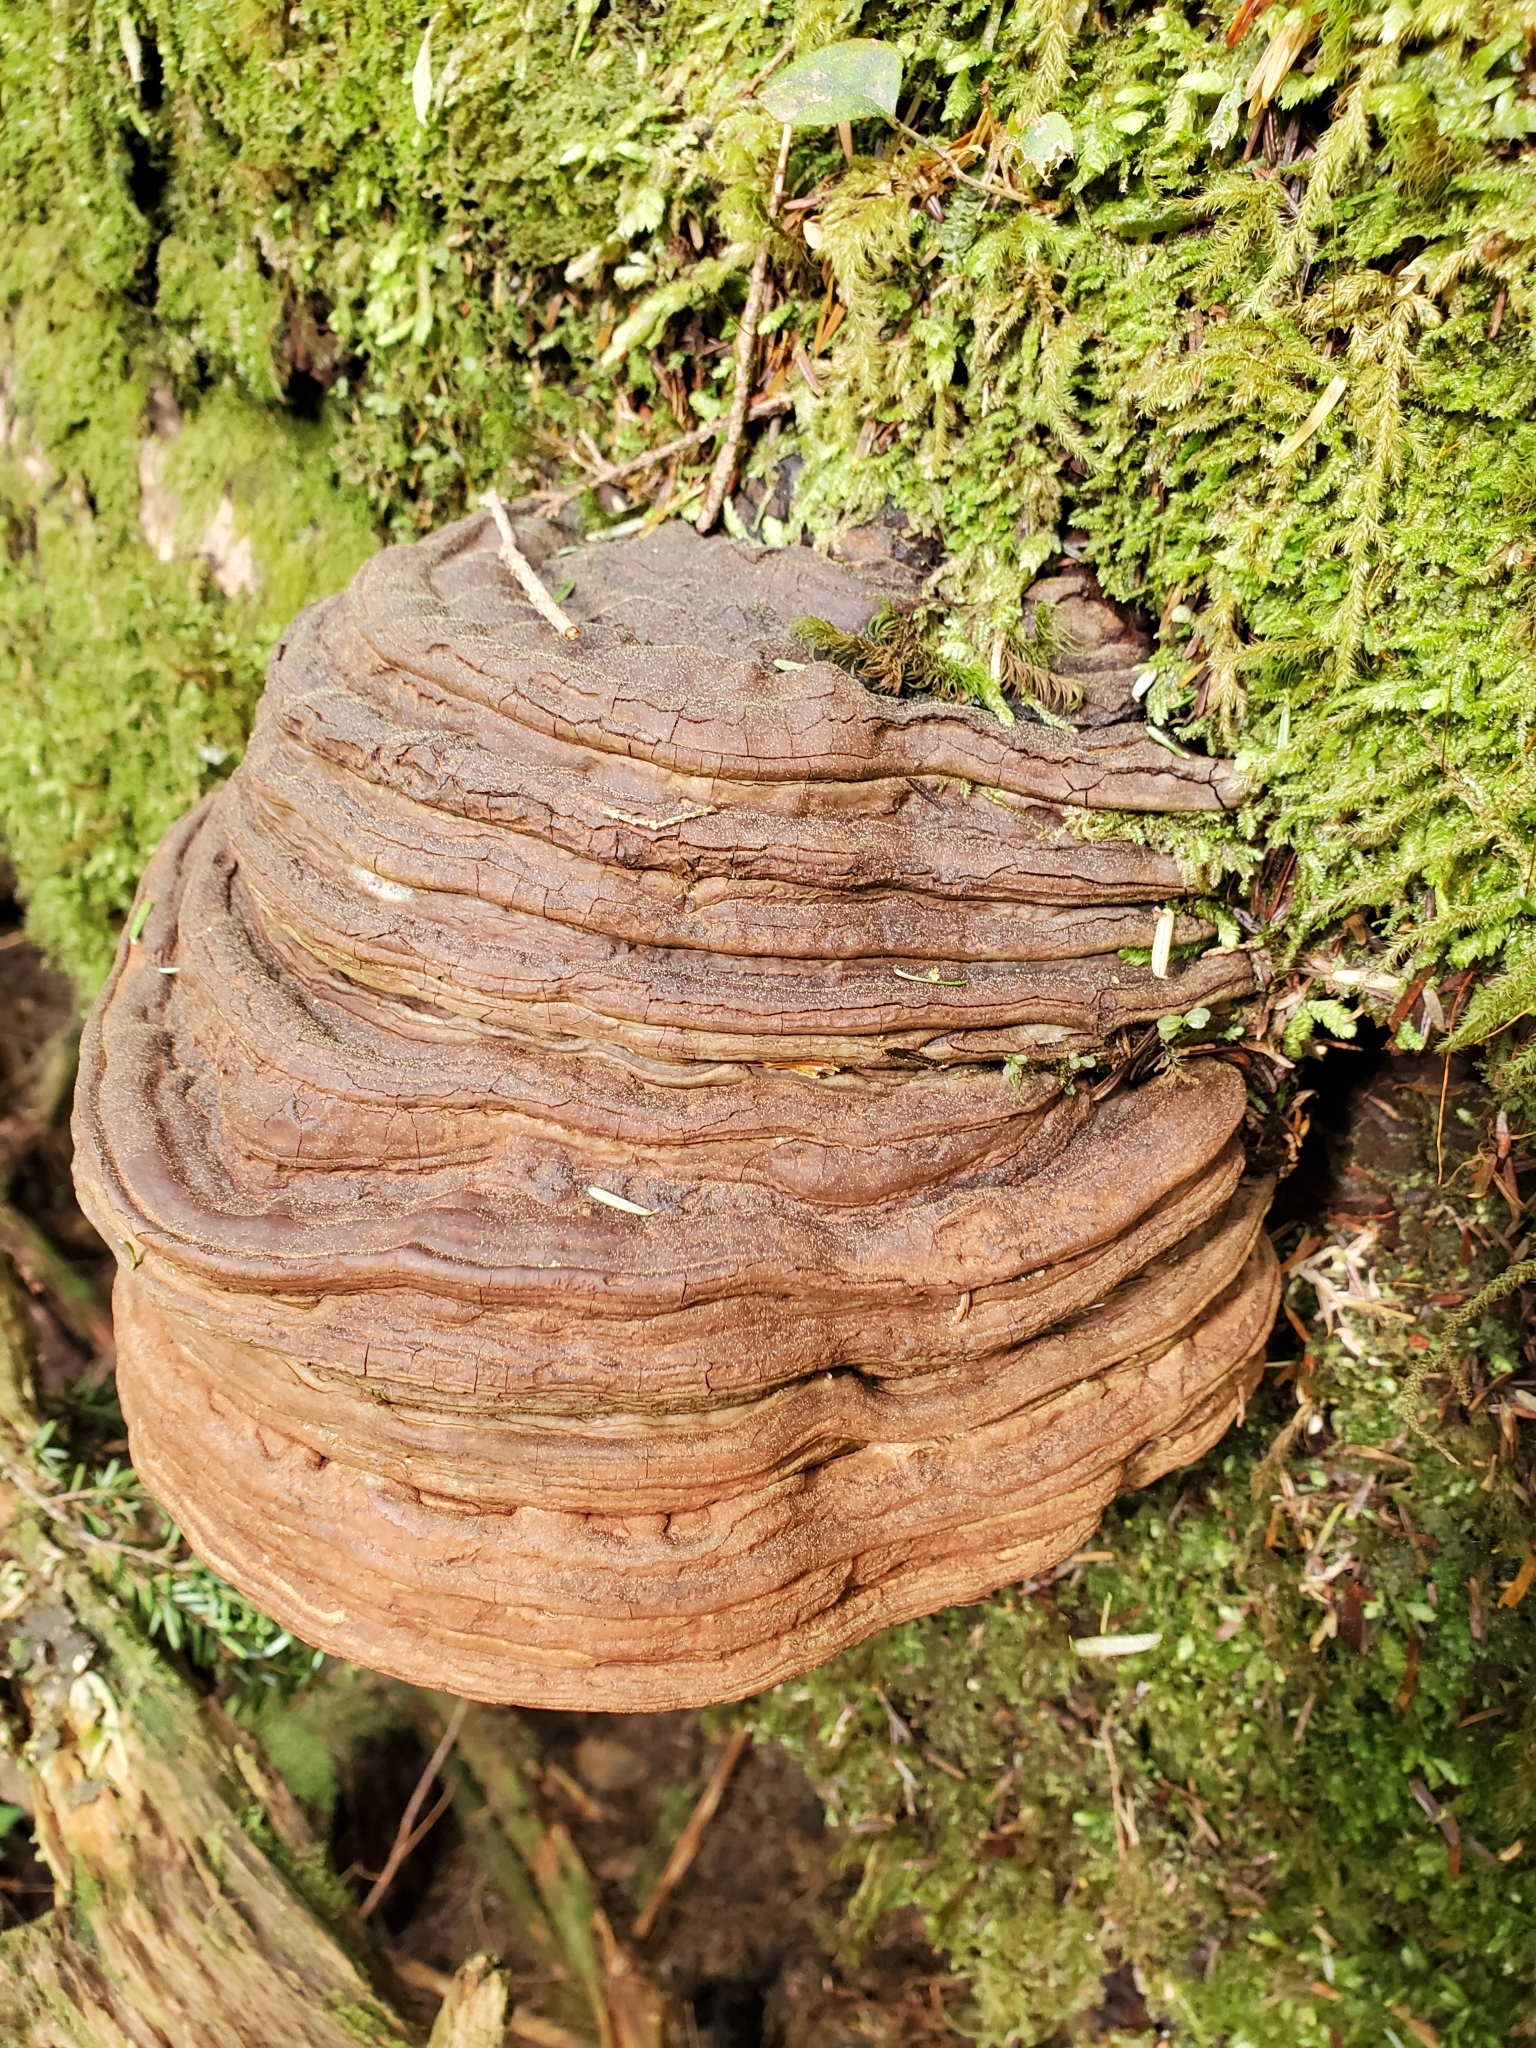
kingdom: Fungi
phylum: Basidiomycota
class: Agaricomycetes
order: Polyporales
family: Polyporaceae
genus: Ganoderma
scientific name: Ganoderma applanatum
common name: Artist's bracket
